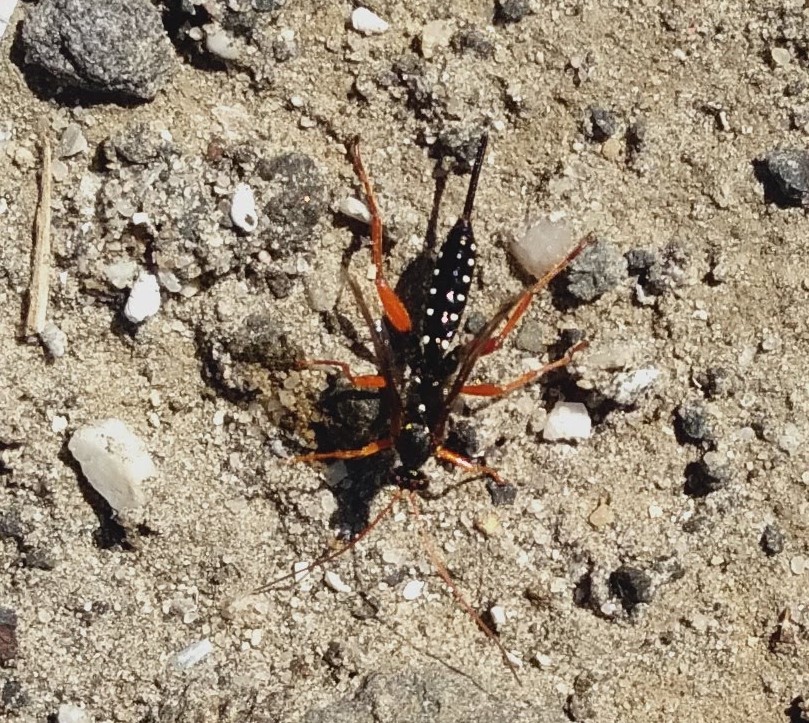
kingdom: Animalia
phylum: Arthropoda
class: Insecta
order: Hymenoptera
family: Ichneumonidae
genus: Echthromorpha
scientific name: Echthromorpha intricatoria
